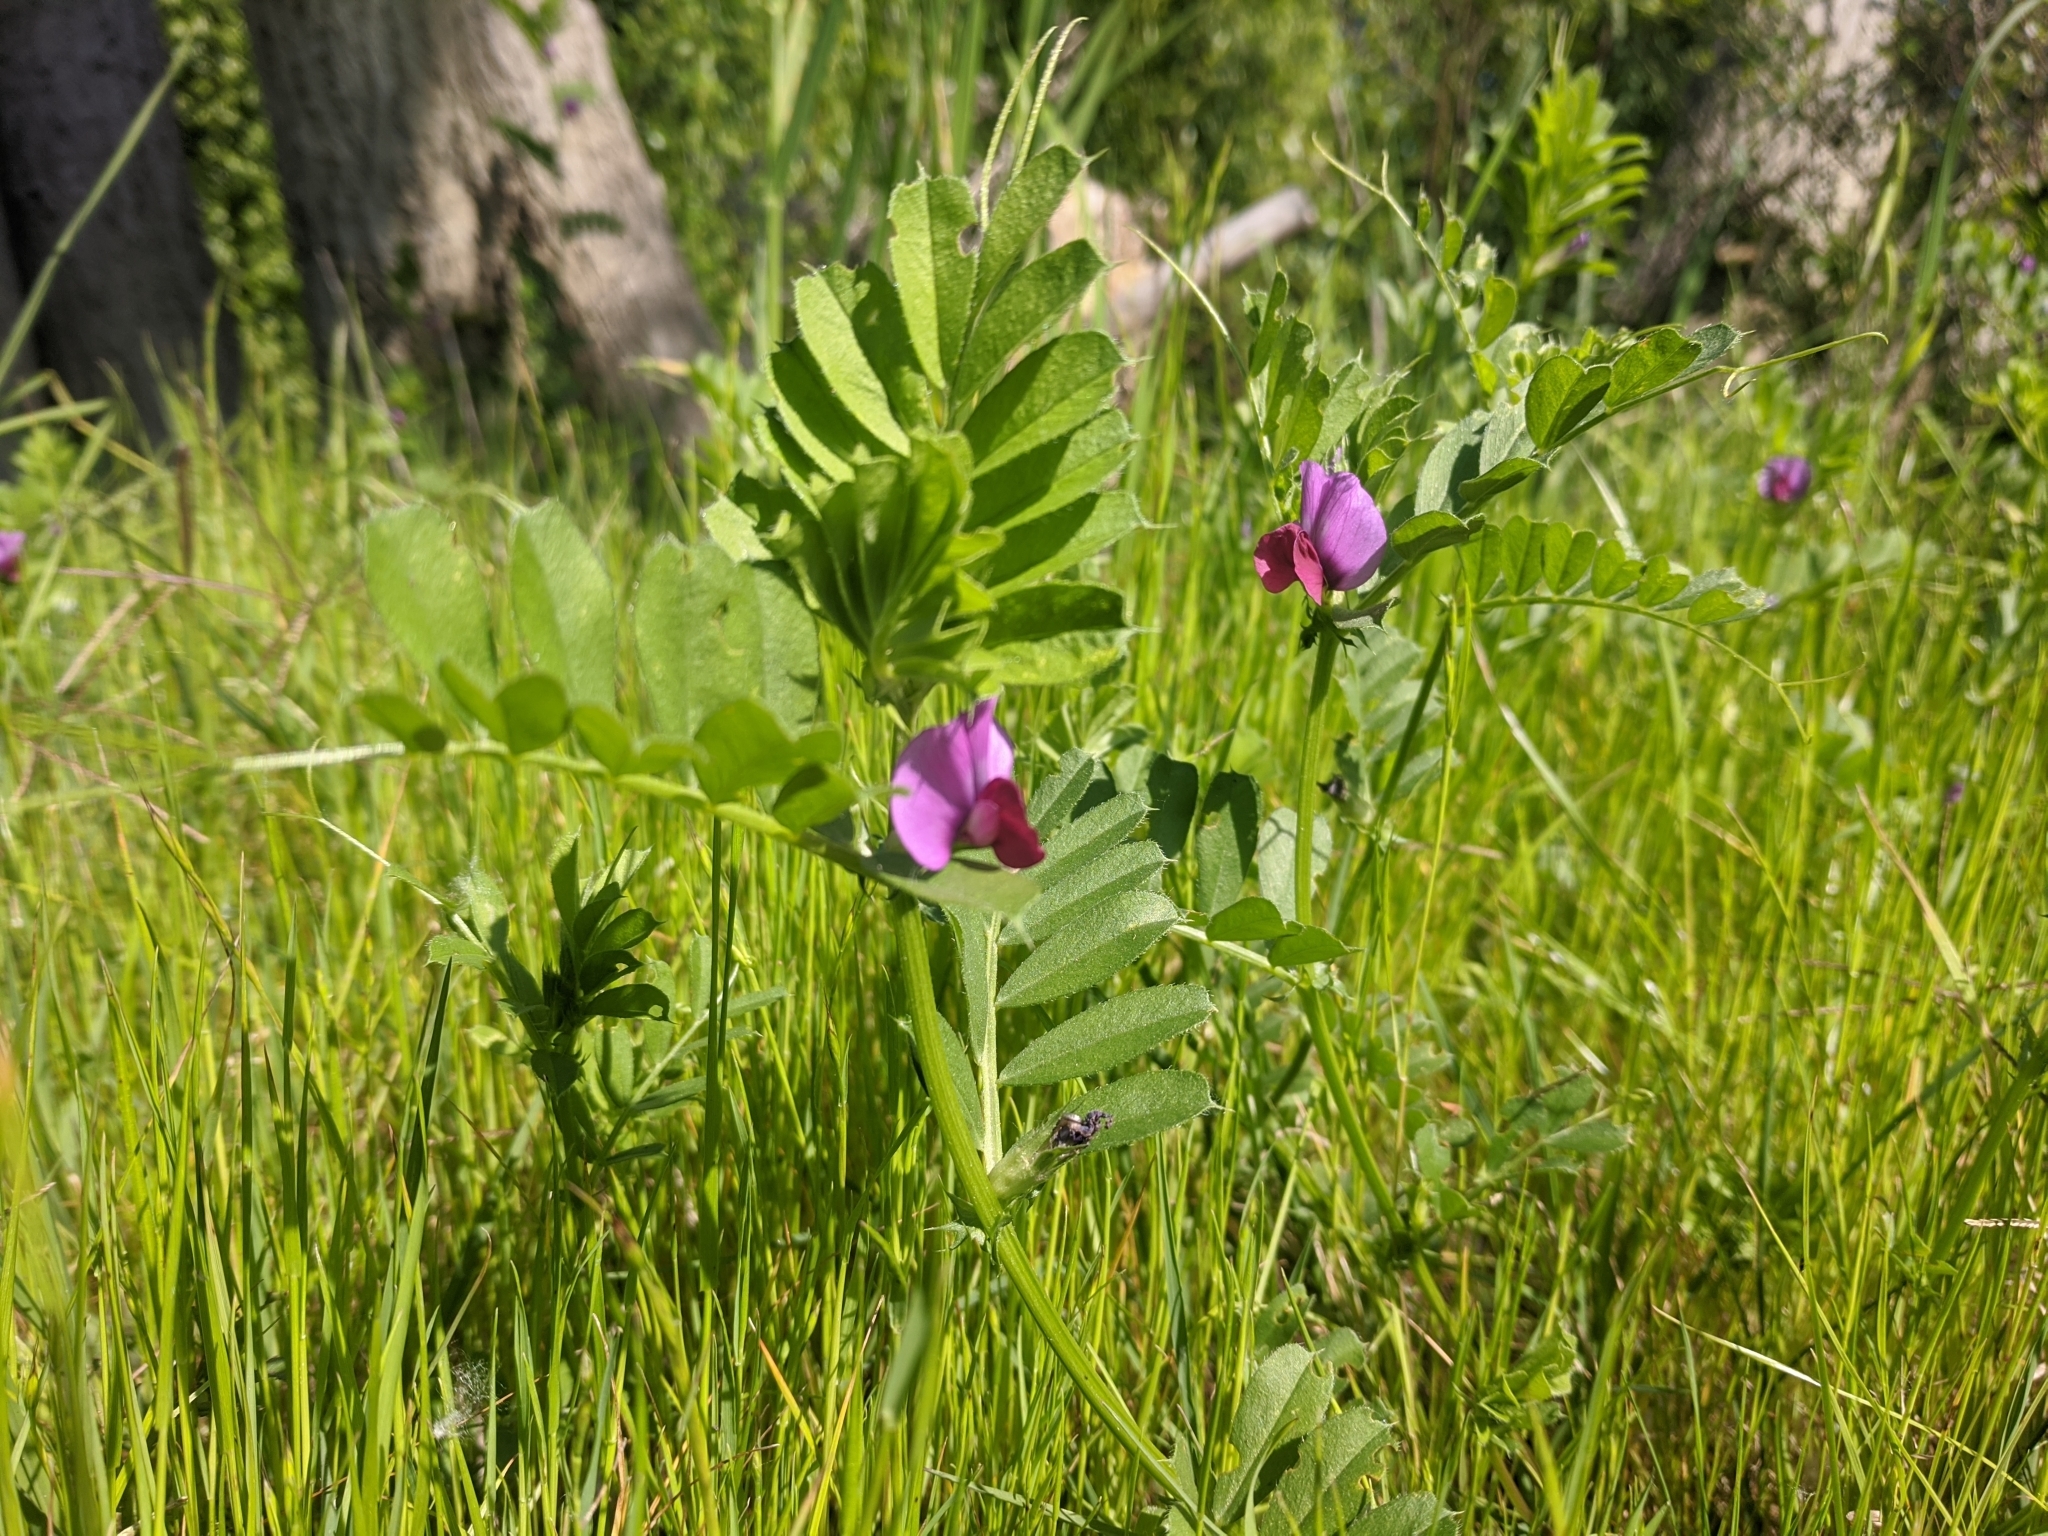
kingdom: Plantae
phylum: Tracheophyta
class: Magnoliopsida
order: Fabales
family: Fabaceae
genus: Vicia
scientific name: Vicia sativa
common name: Garden vetch
